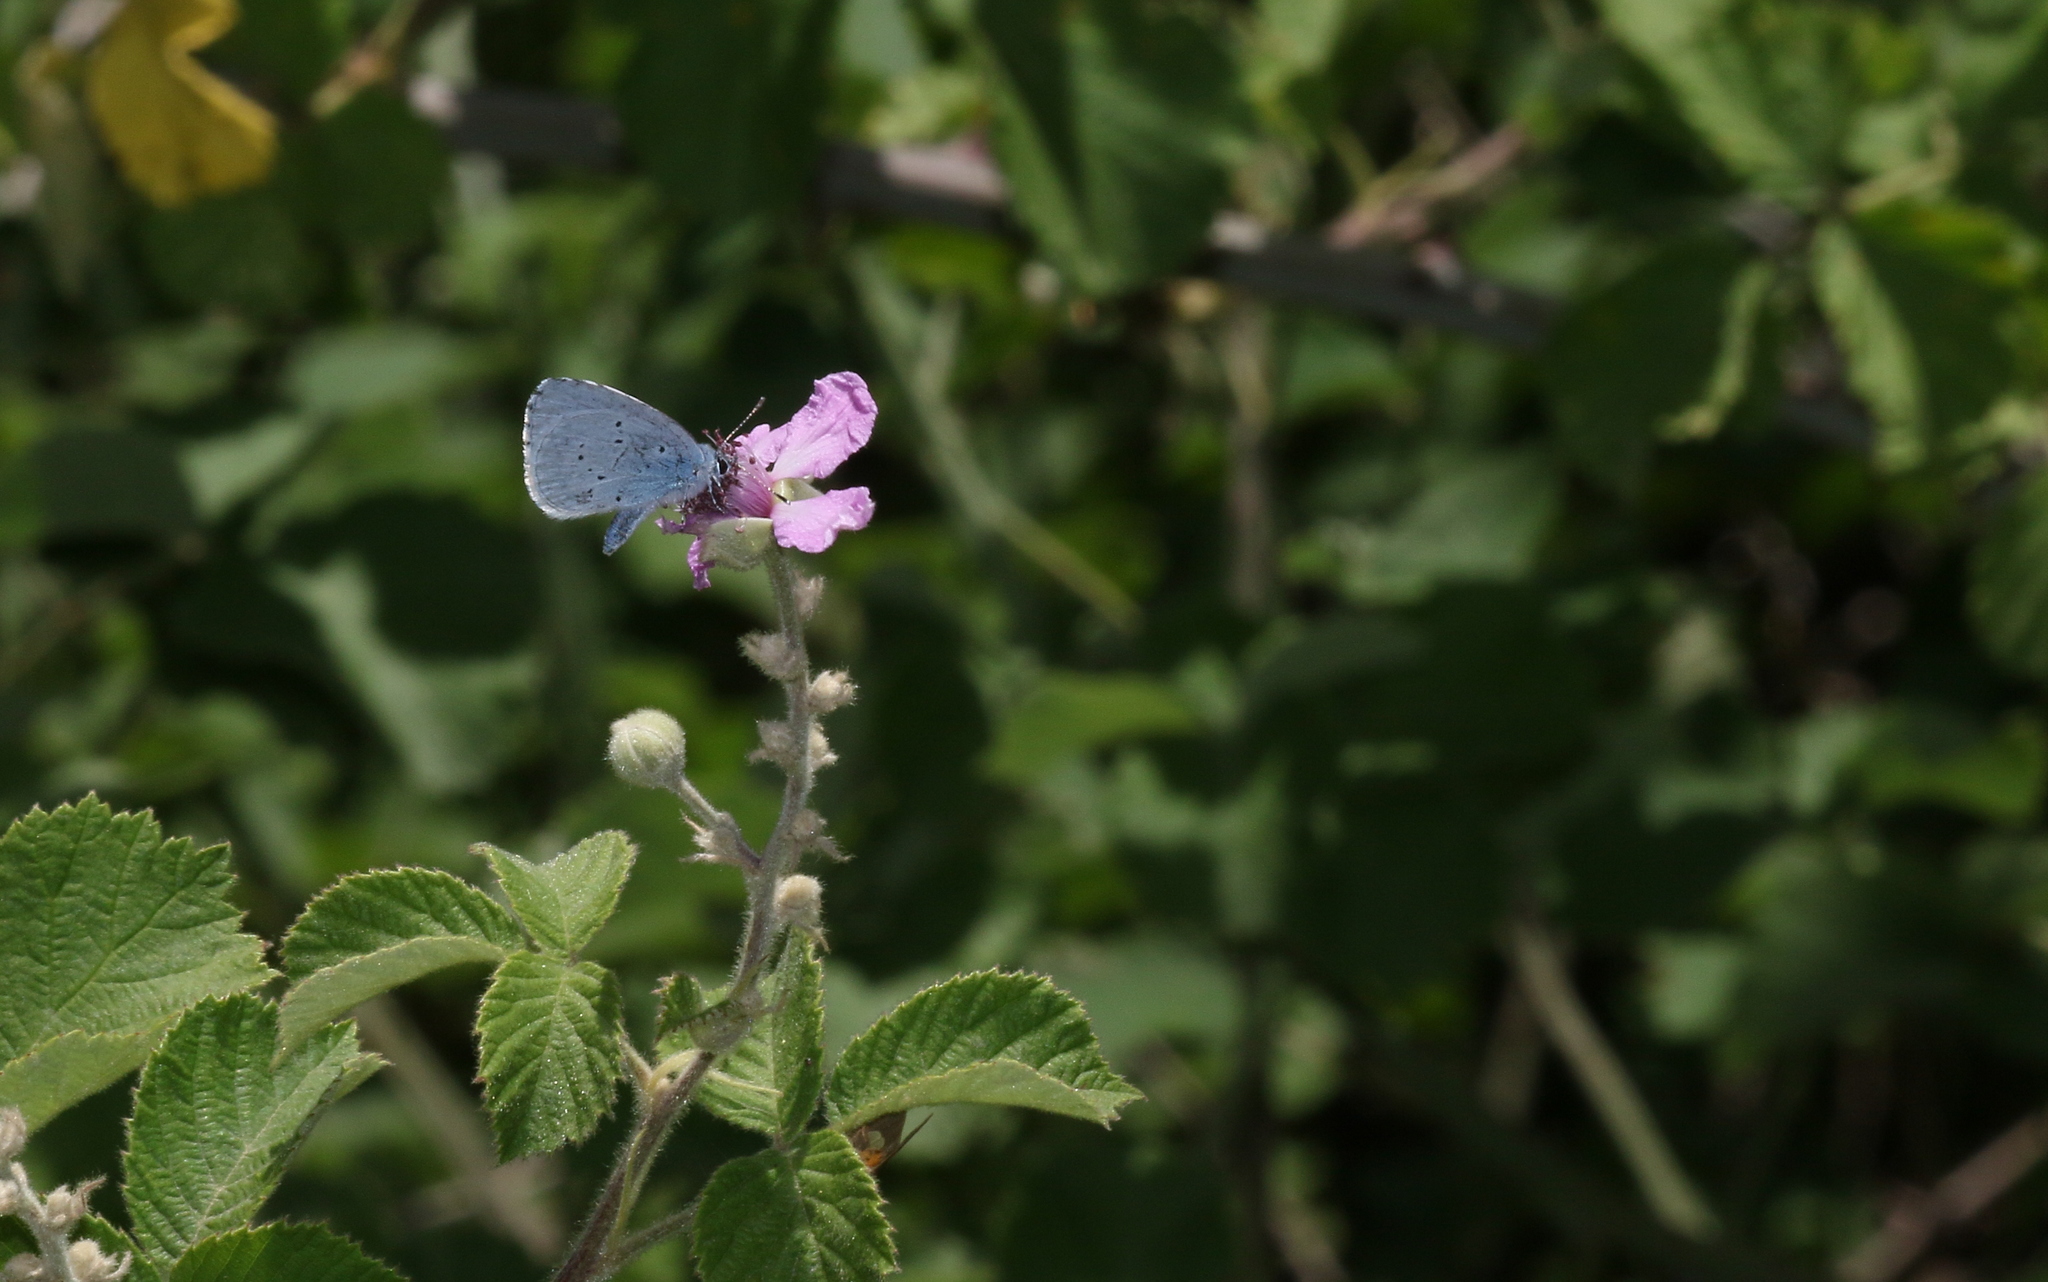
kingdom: Animalia
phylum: Arthropoda
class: Insecta
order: Lepidoptera
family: Lycaenidae
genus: Celastrina
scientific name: Celastrina argiolus
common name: Holly blue
